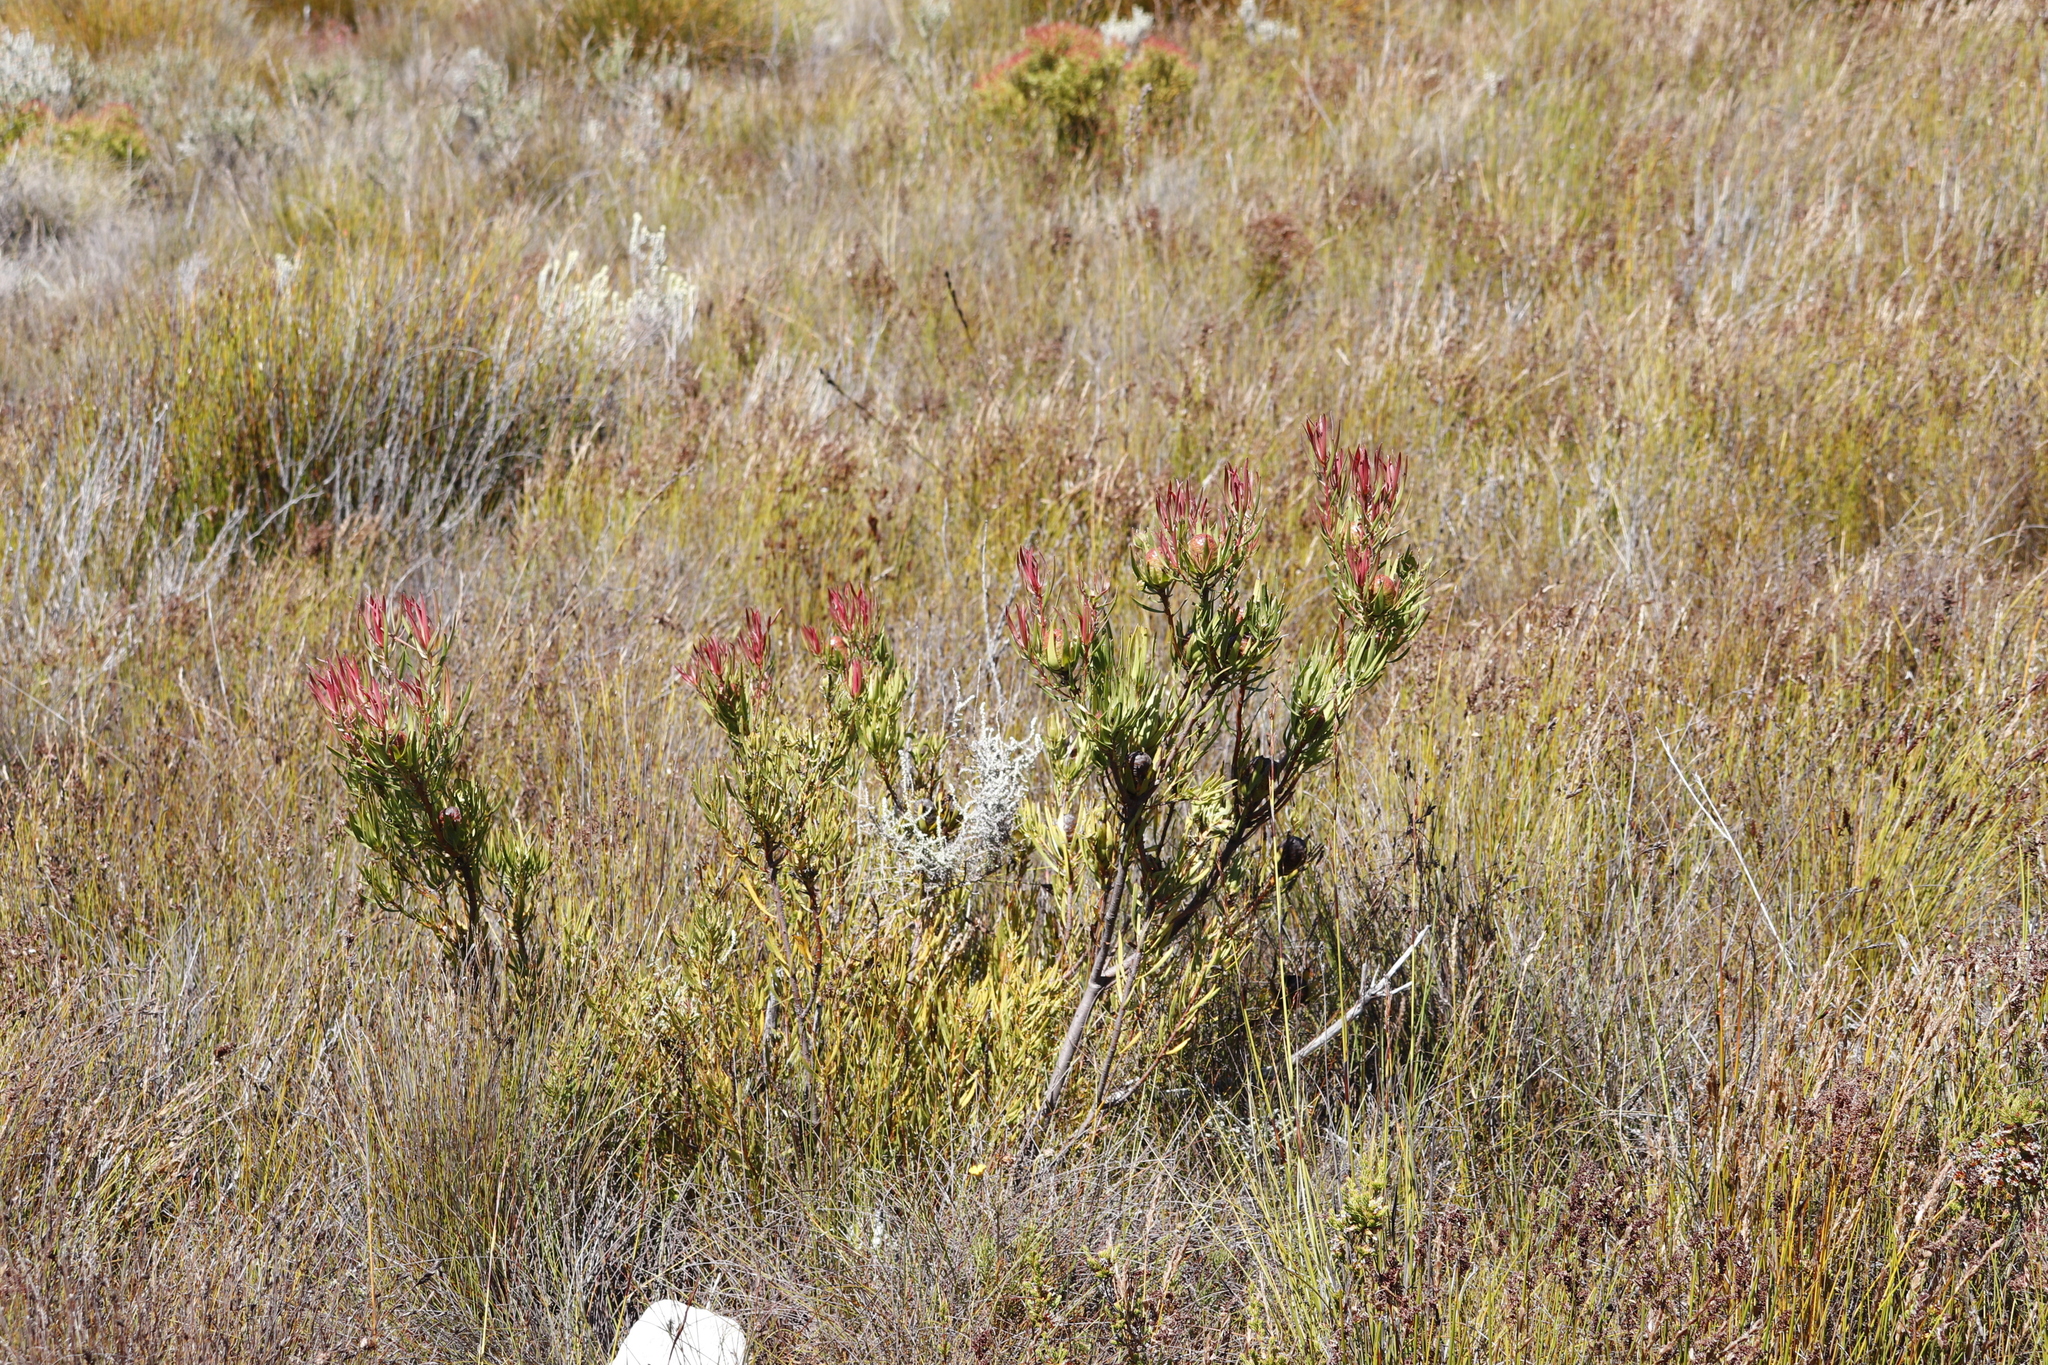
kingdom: Plantae
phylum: Tracheophyta
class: Magnoliopsida
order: Proteales
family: Proteaceae
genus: Leucadendron
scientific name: Leucadendron spissifolium
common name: Spear-leaf conebush
